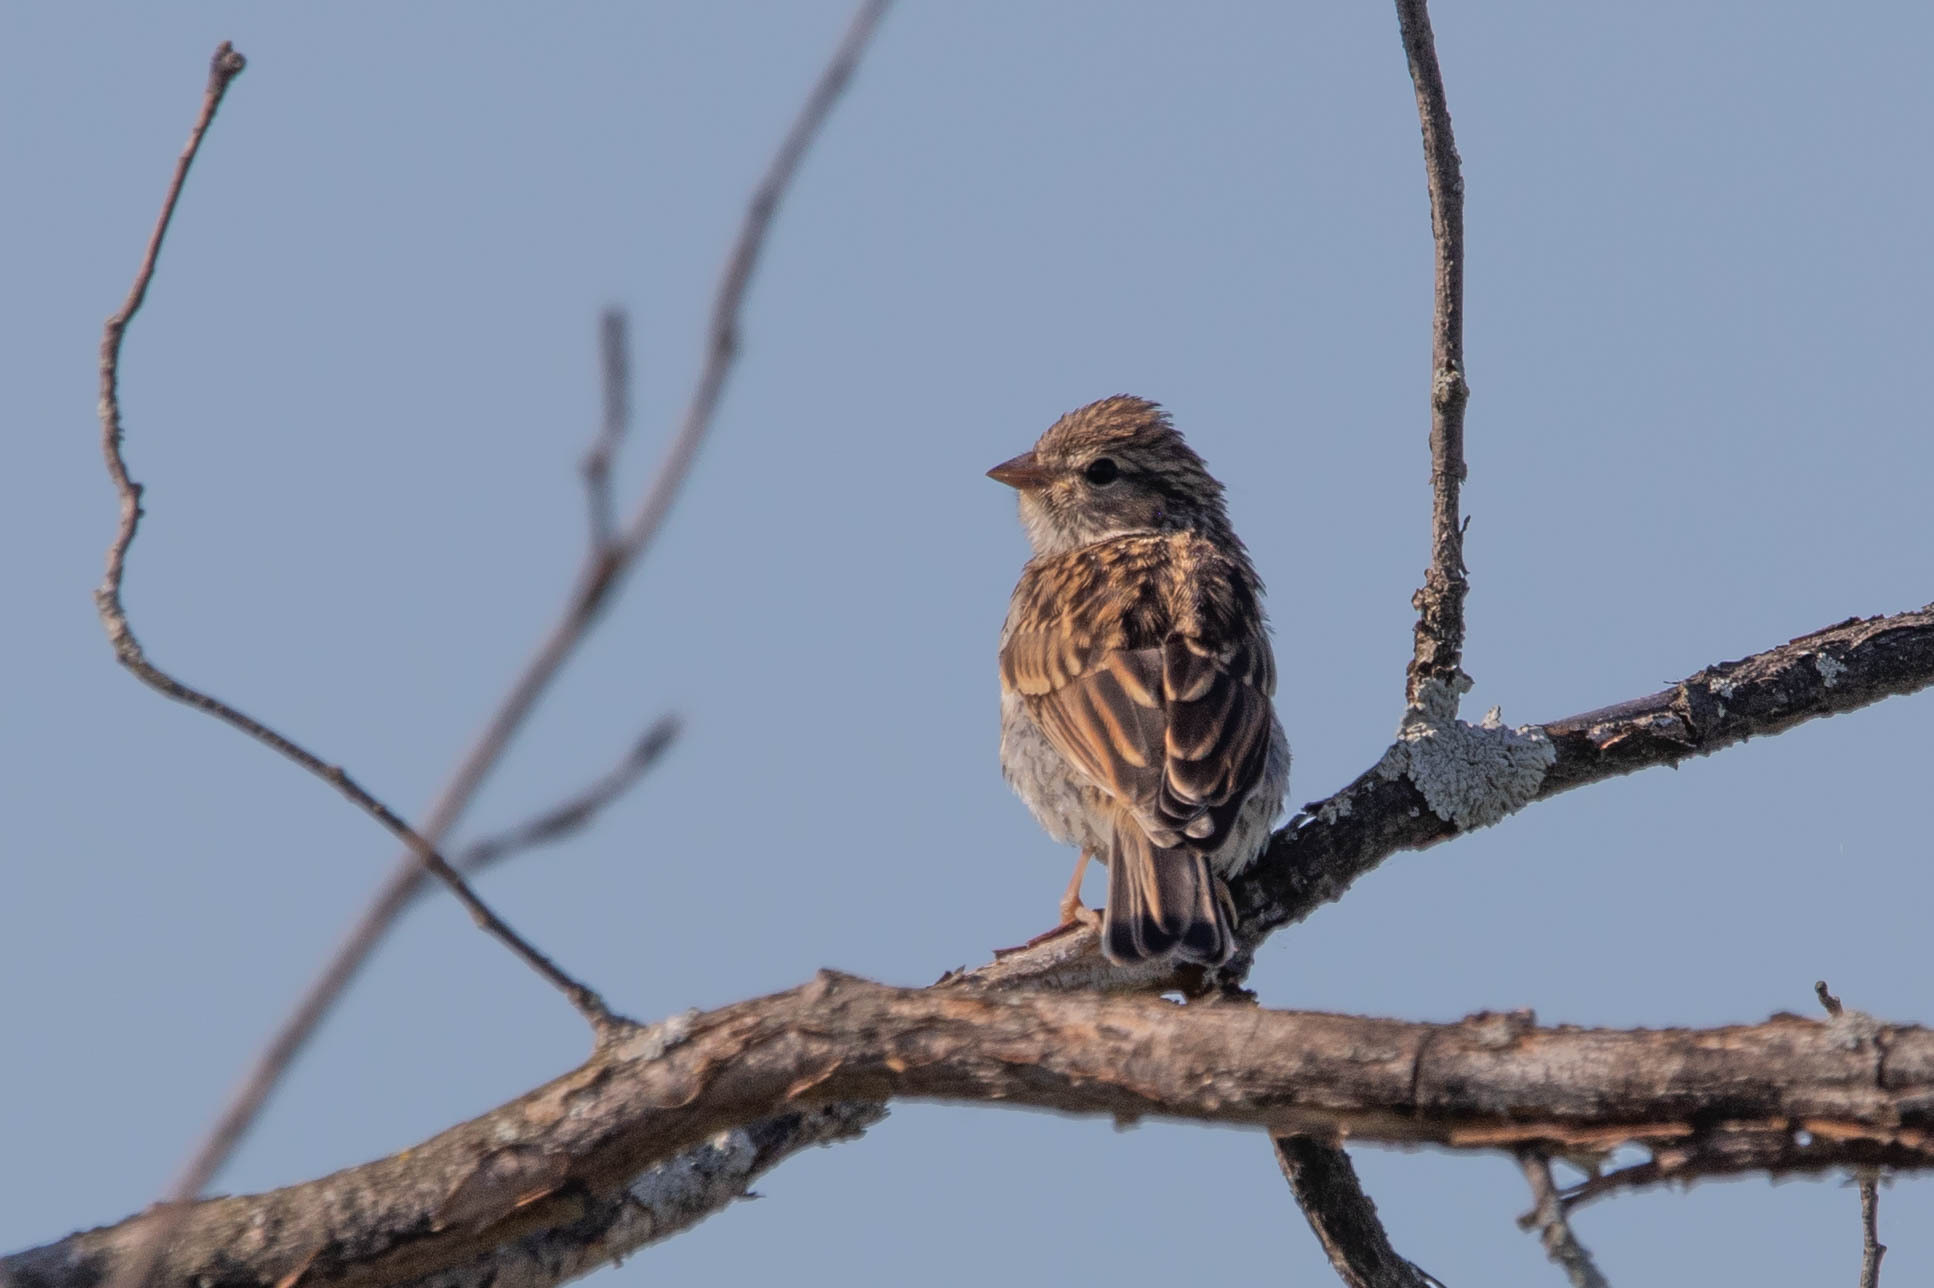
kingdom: Animalia
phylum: Chordata
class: Aves
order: Passeriformes
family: Passerellidae
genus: Spizella
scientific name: Spizella passerina
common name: Chipping sparrow
